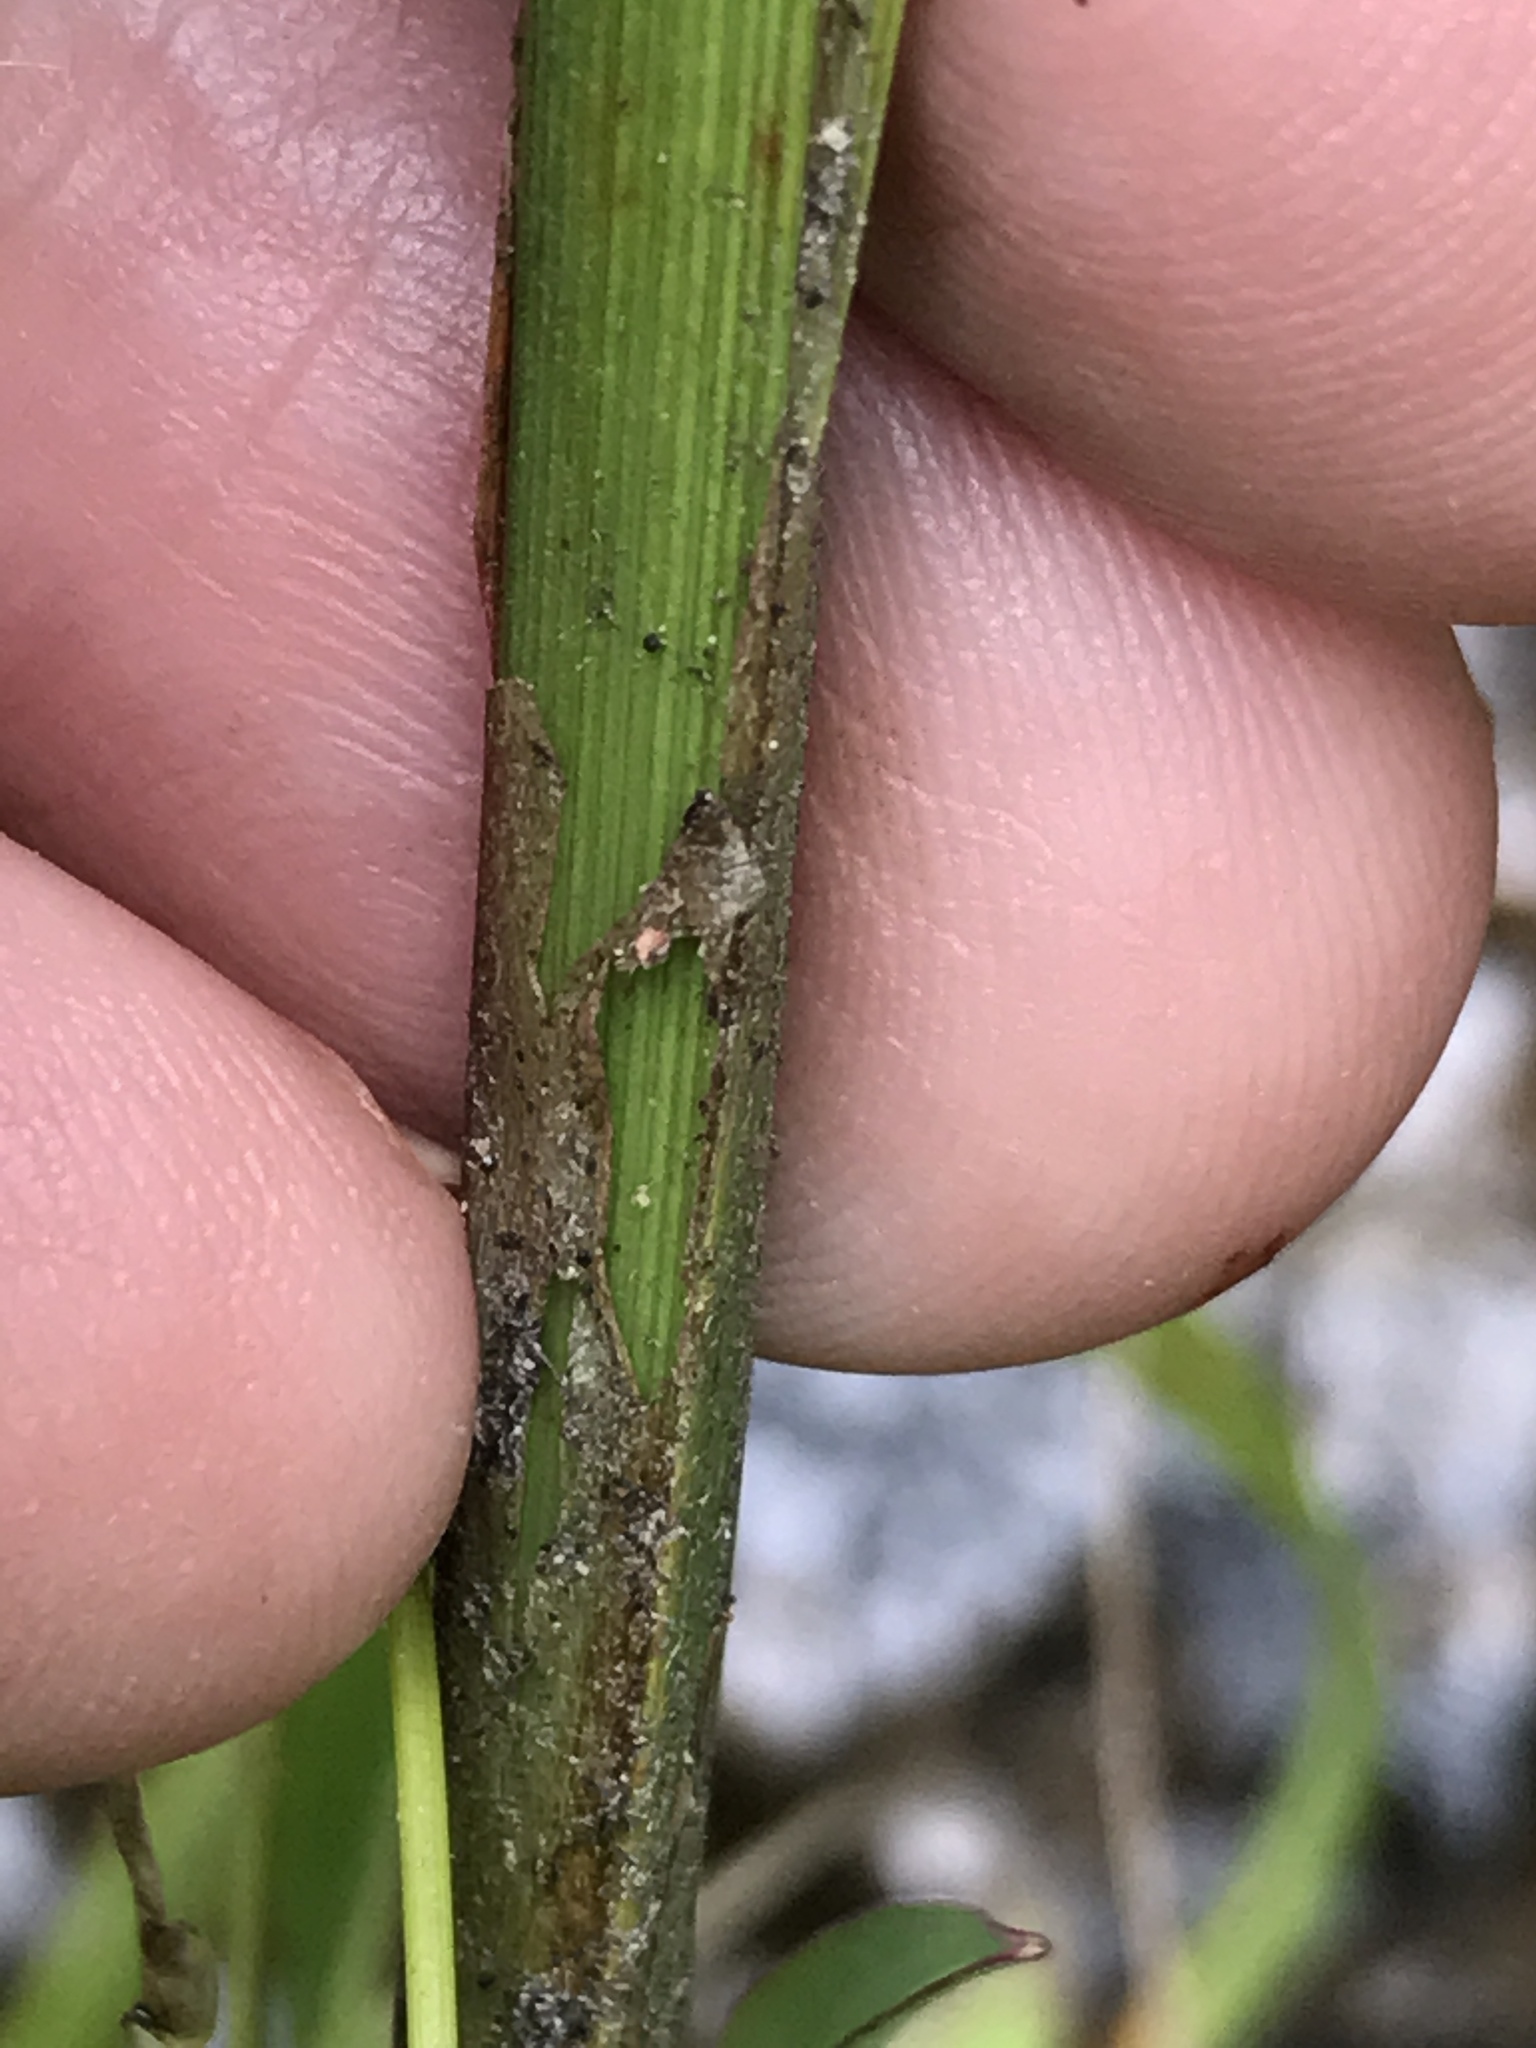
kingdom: Plantae
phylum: Tracheophyta
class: Liliopsida
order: Poales
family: Cyperaceae
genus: Carex
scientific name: Carex gynandra
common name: Nodding sedge
